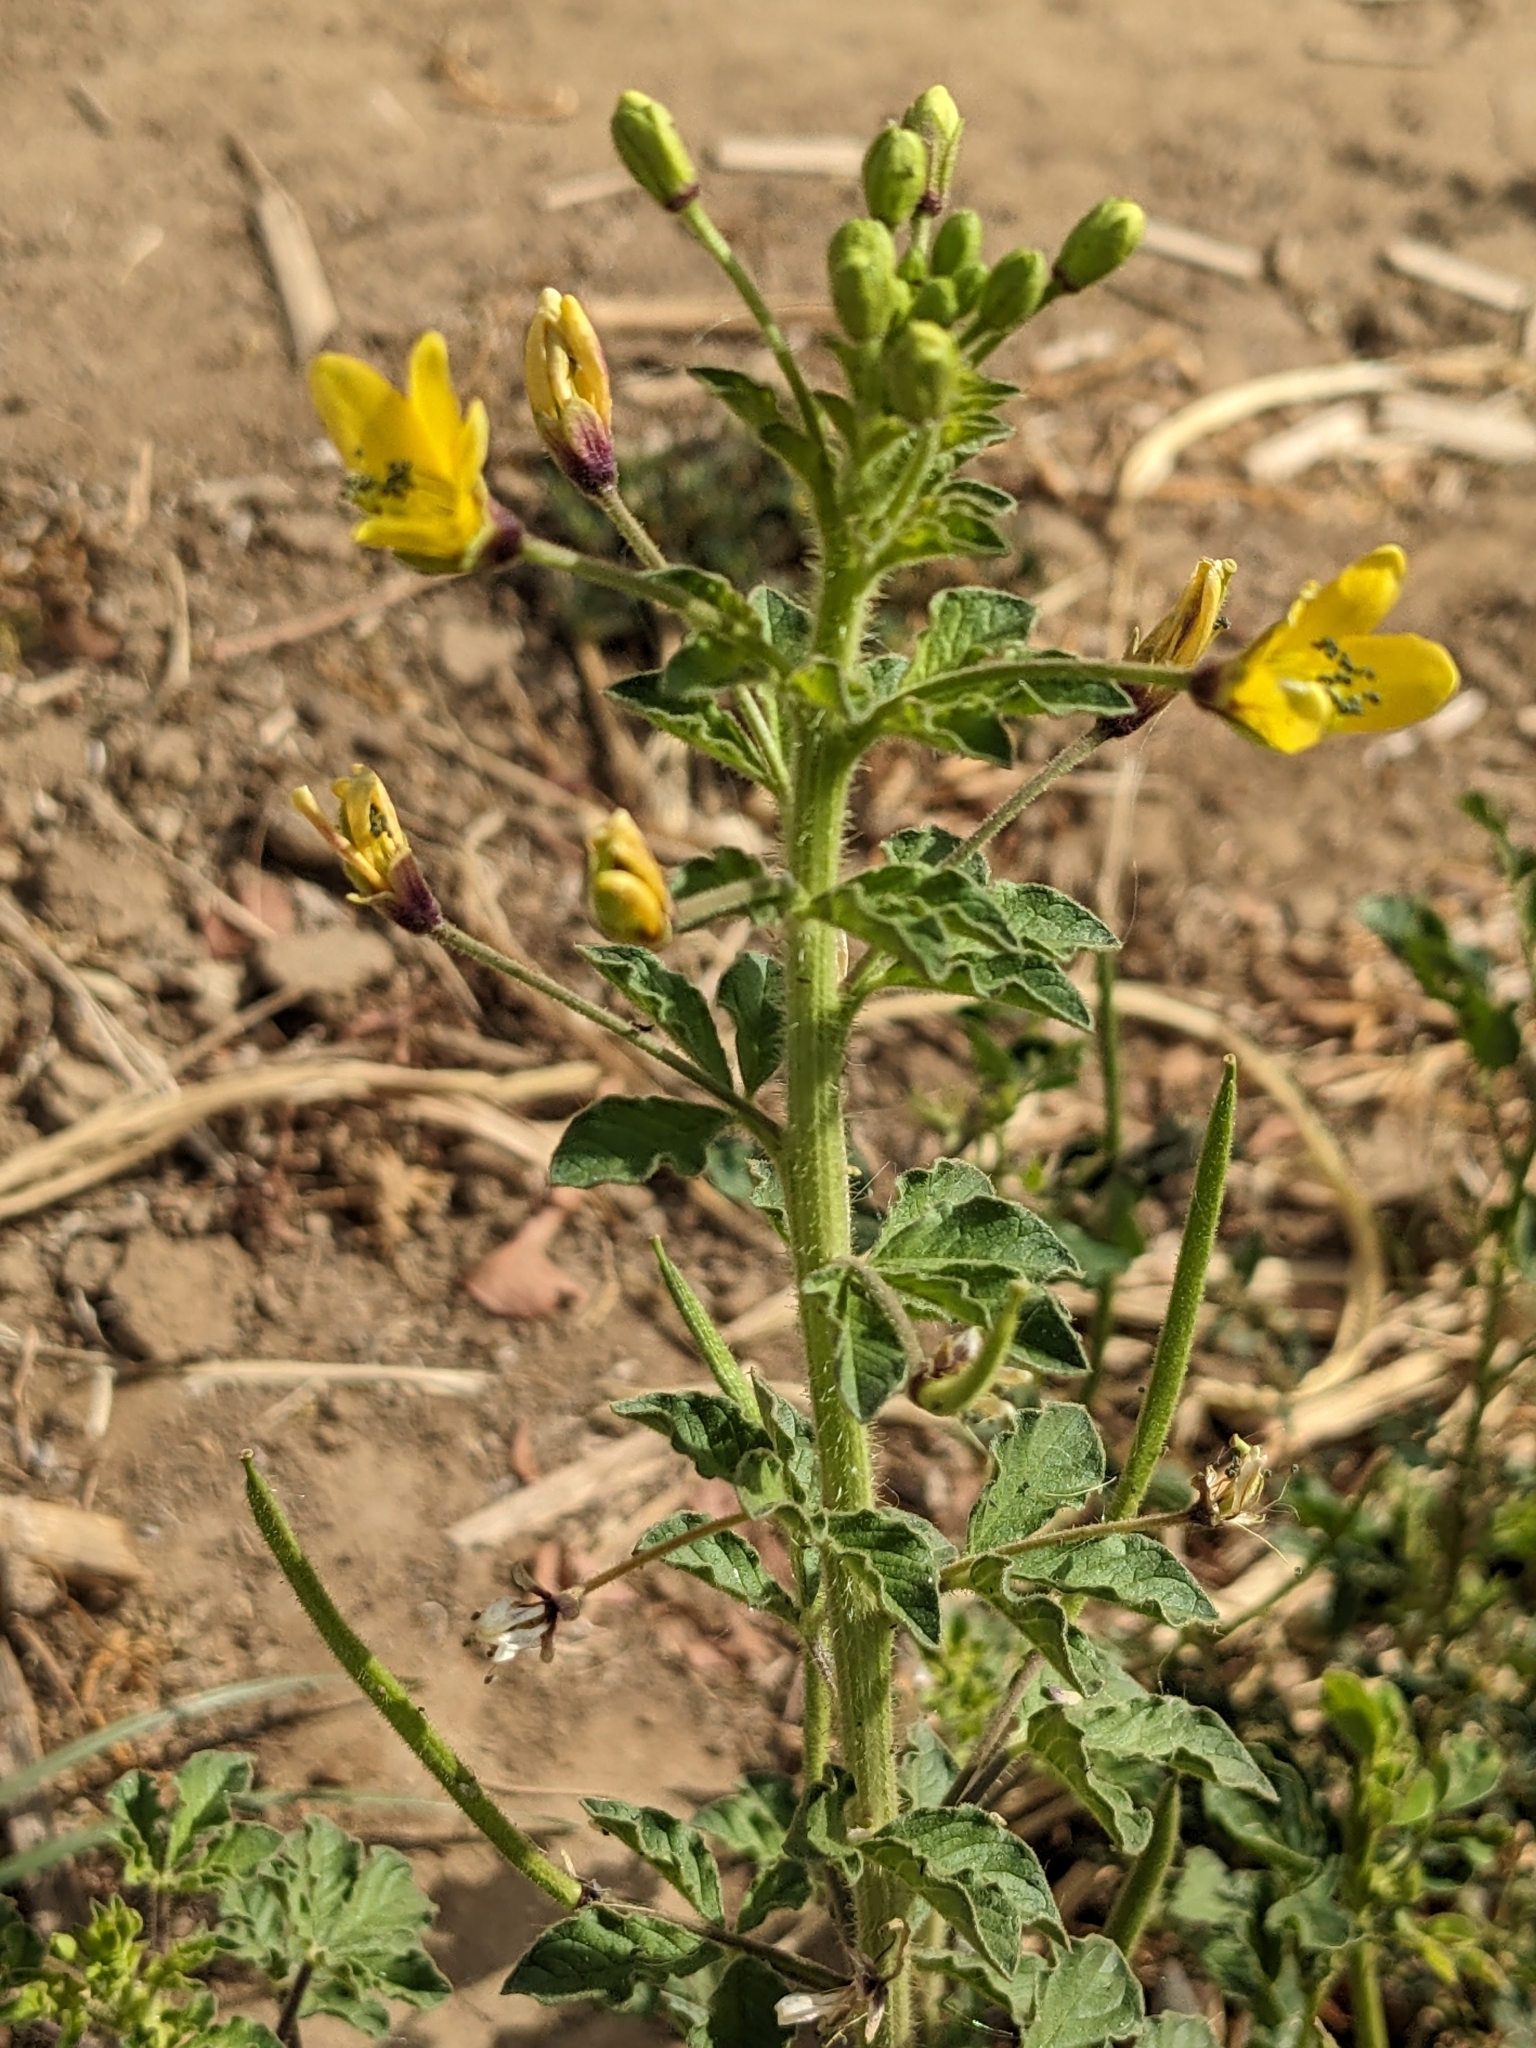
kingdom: Plantae
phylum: Tracheophyta
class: Magnoliopsida
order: Brassicales
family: Cleomaceae
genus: Arivela
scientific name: Arivela viscosa
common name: Asian spiderflower
